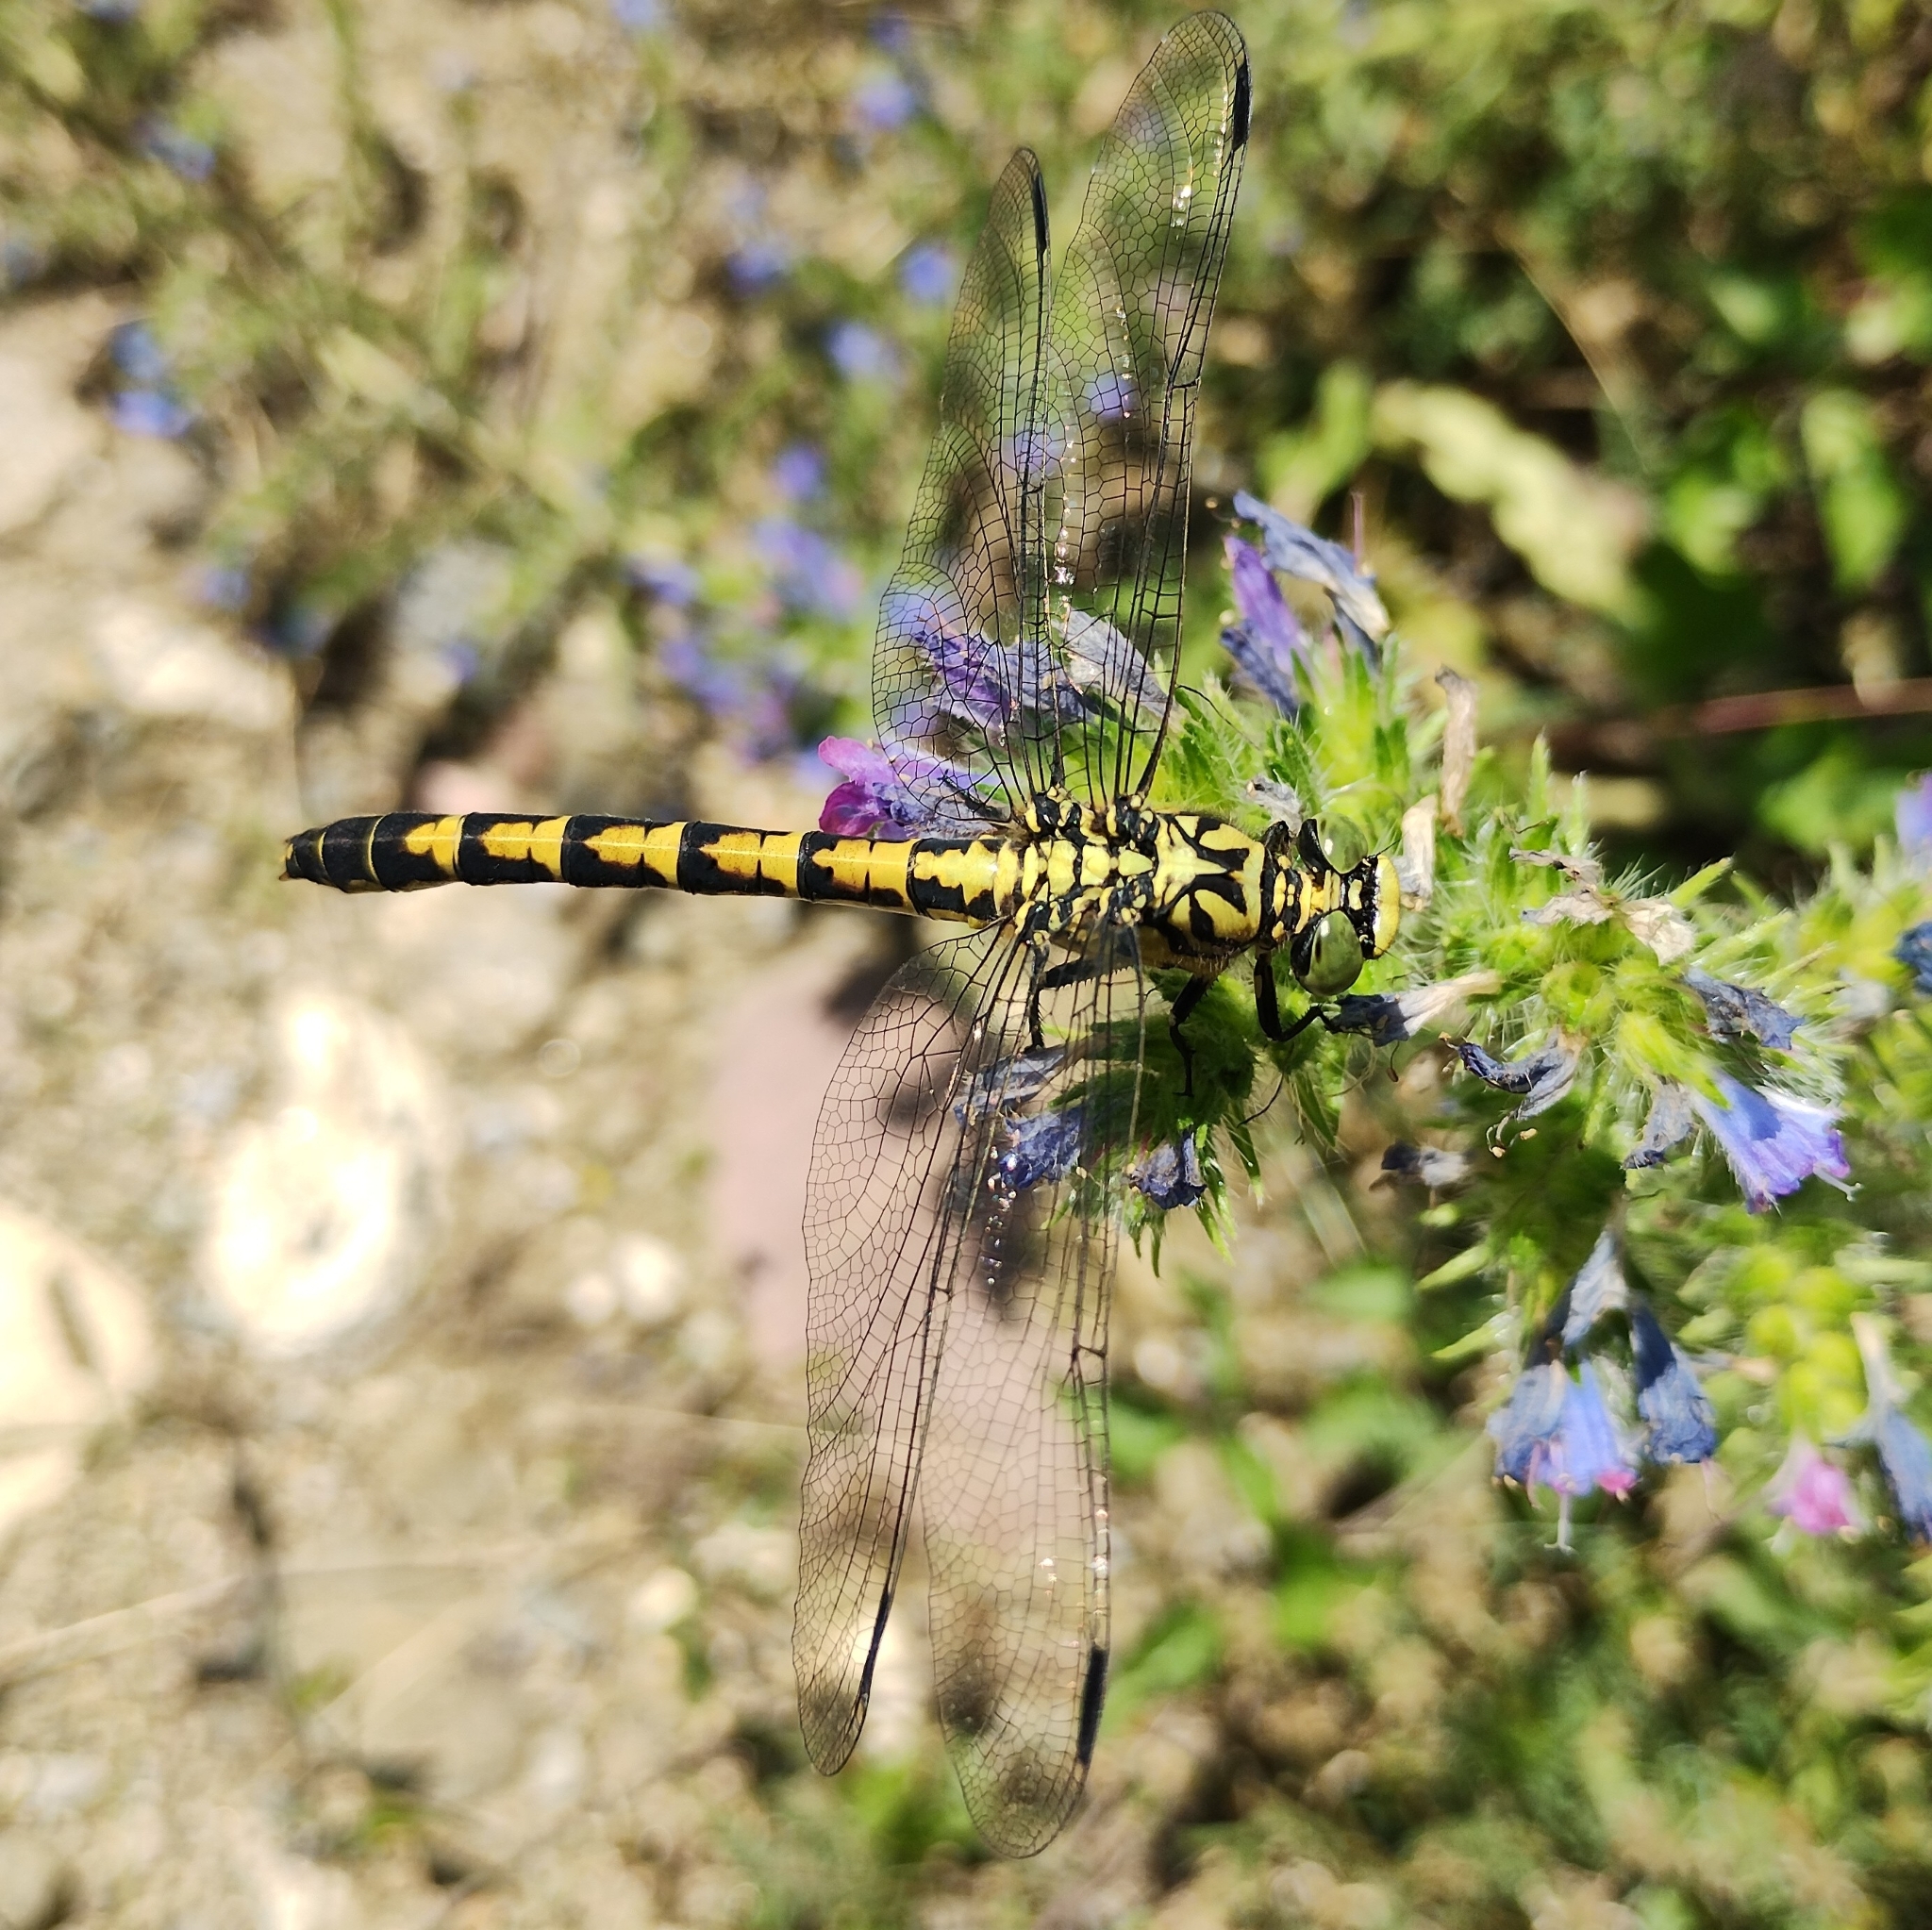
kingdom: Animalia
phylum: Arthropoda
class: Insecta
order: Odonata
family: Gomphidae
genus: Onychogomphus
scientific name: Onychogomphus forcipatus
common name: Small pincertail
